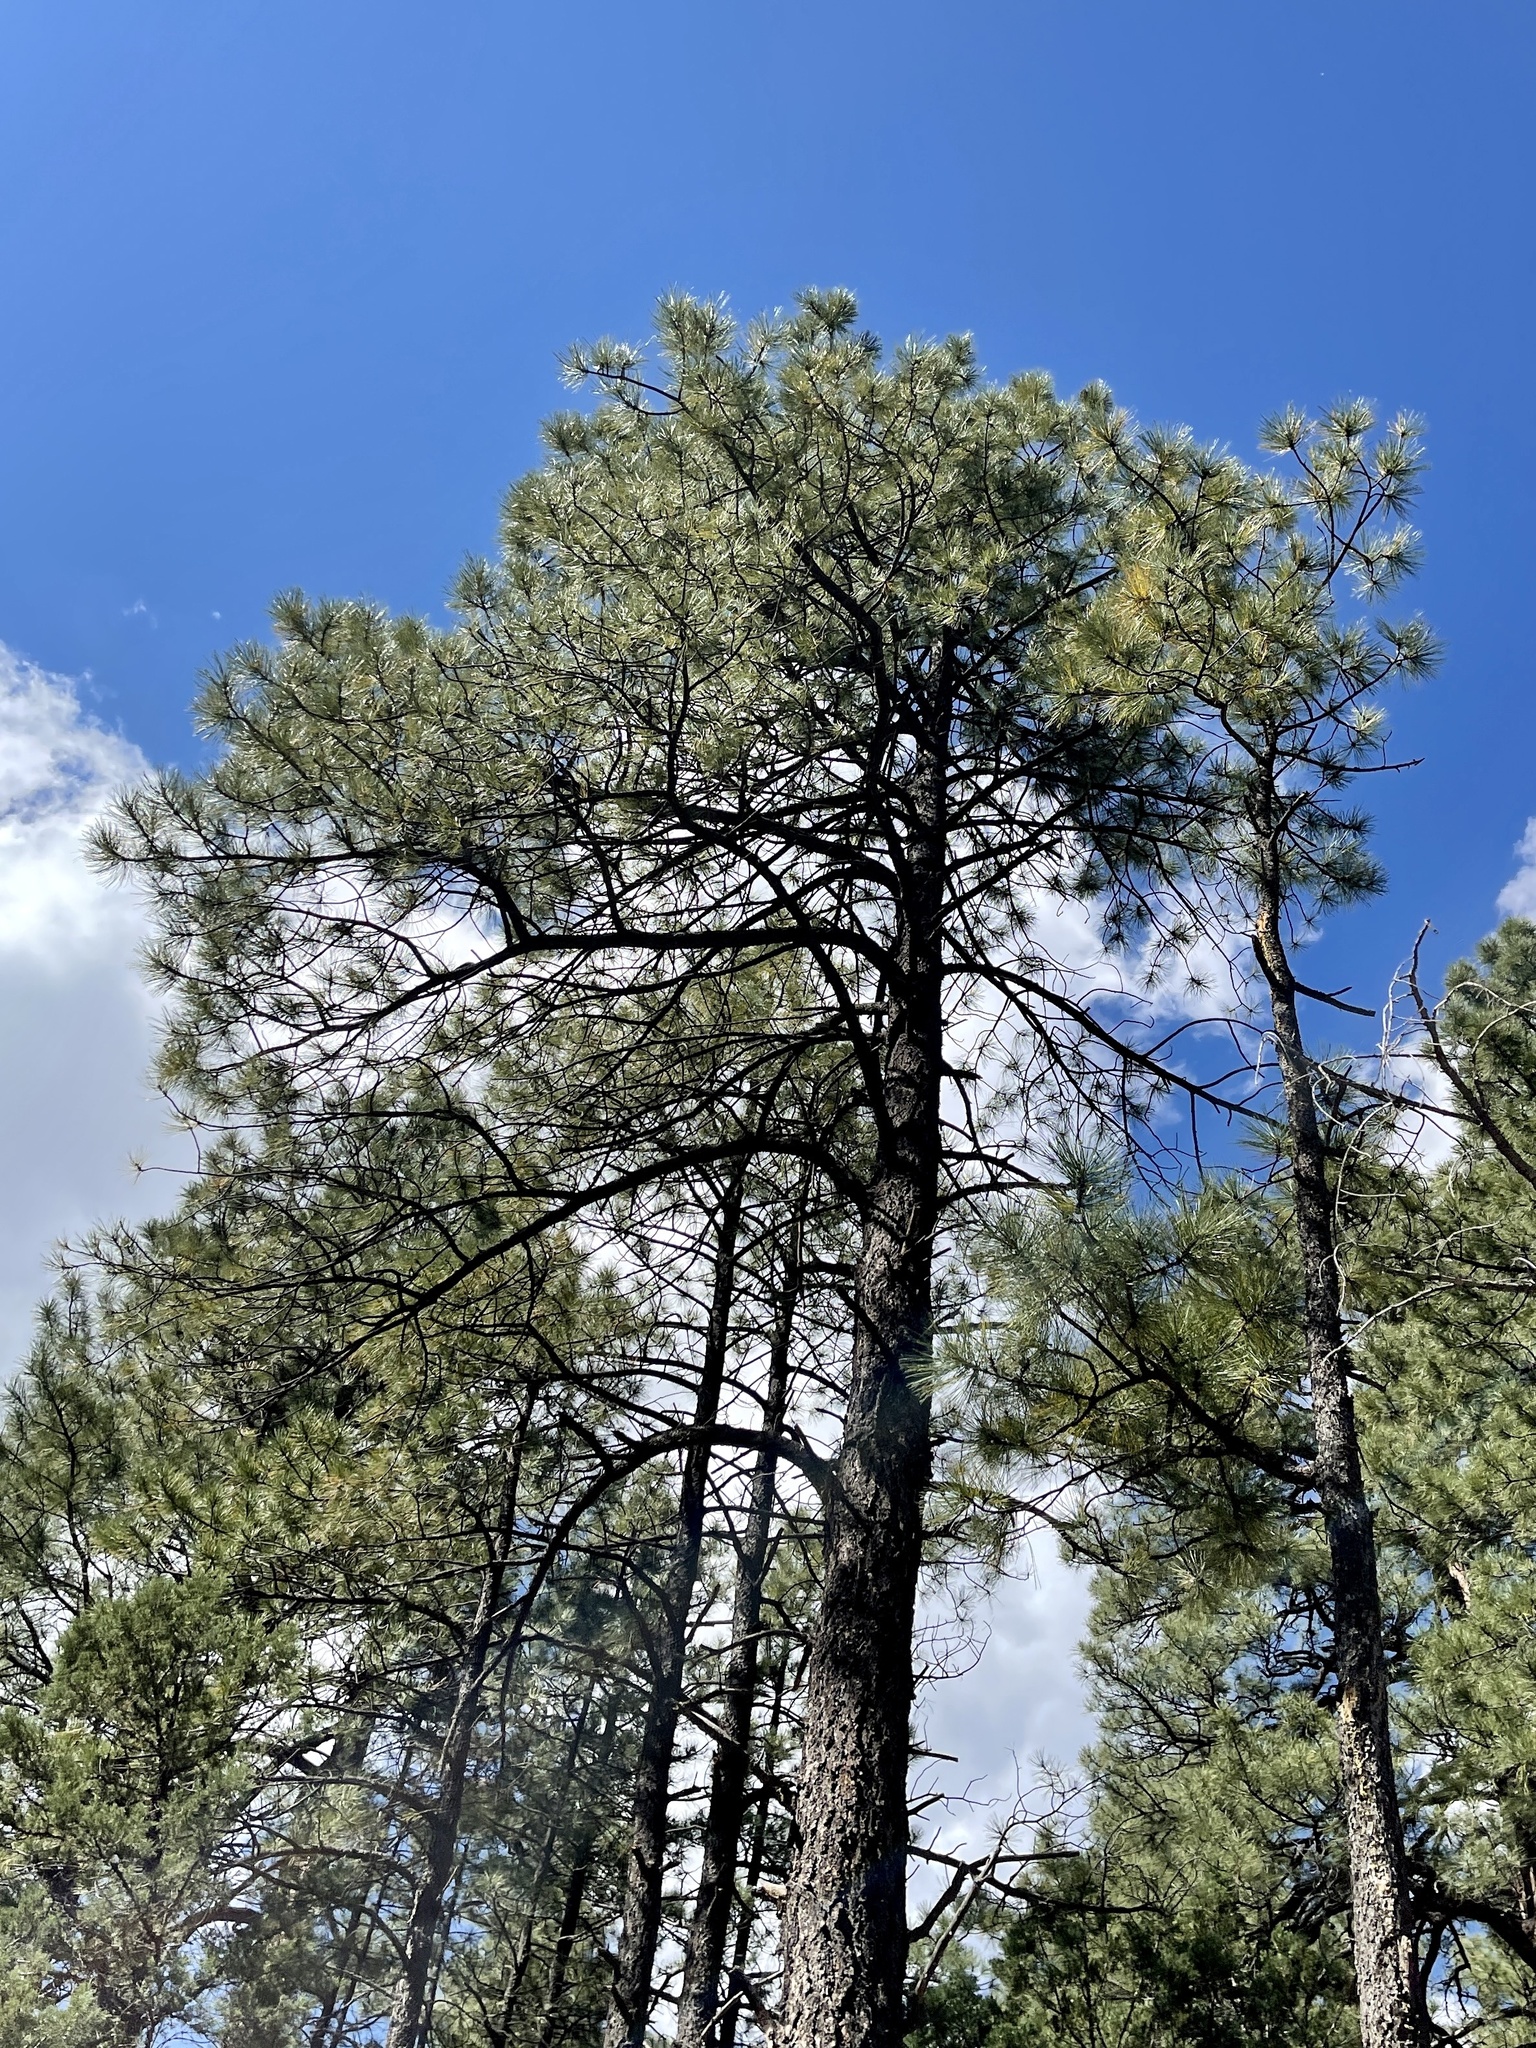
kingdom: Plantae
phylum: Tracheophyta
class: Pinopsida
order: Pinales
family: Pinaceae
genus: Pinus
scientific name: Pinus ponderosa
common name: Western yellow-pine
